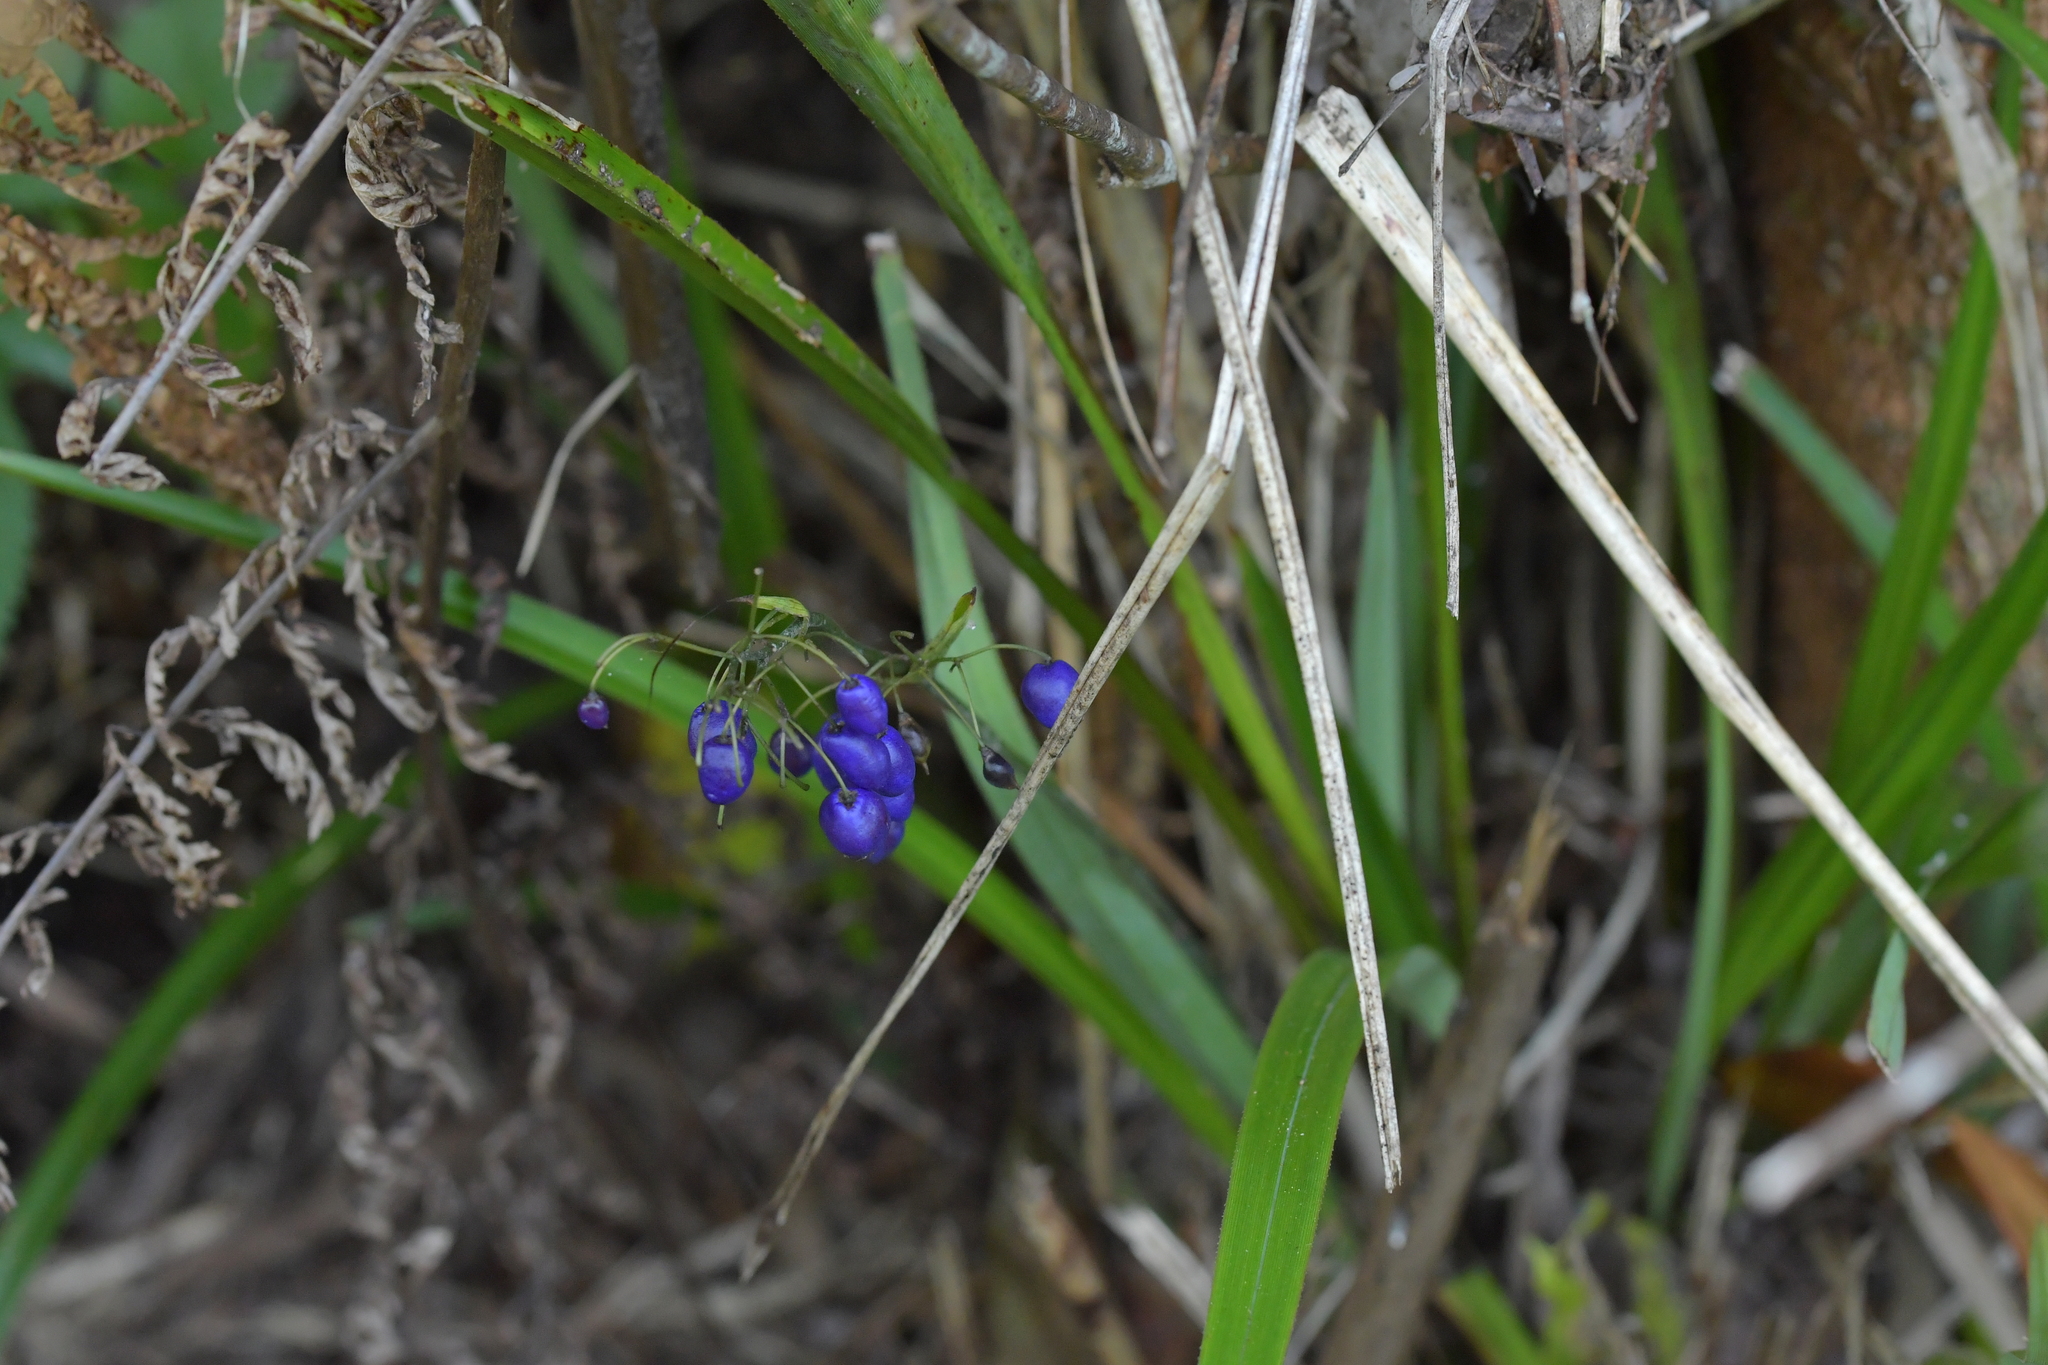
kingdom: Plantae
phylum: Tracheophyta
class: Liliopsida
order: Asparagales
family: Asphodelaceae
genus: Dianella
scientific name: Dianella nigra
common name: New zealand-blueberry
